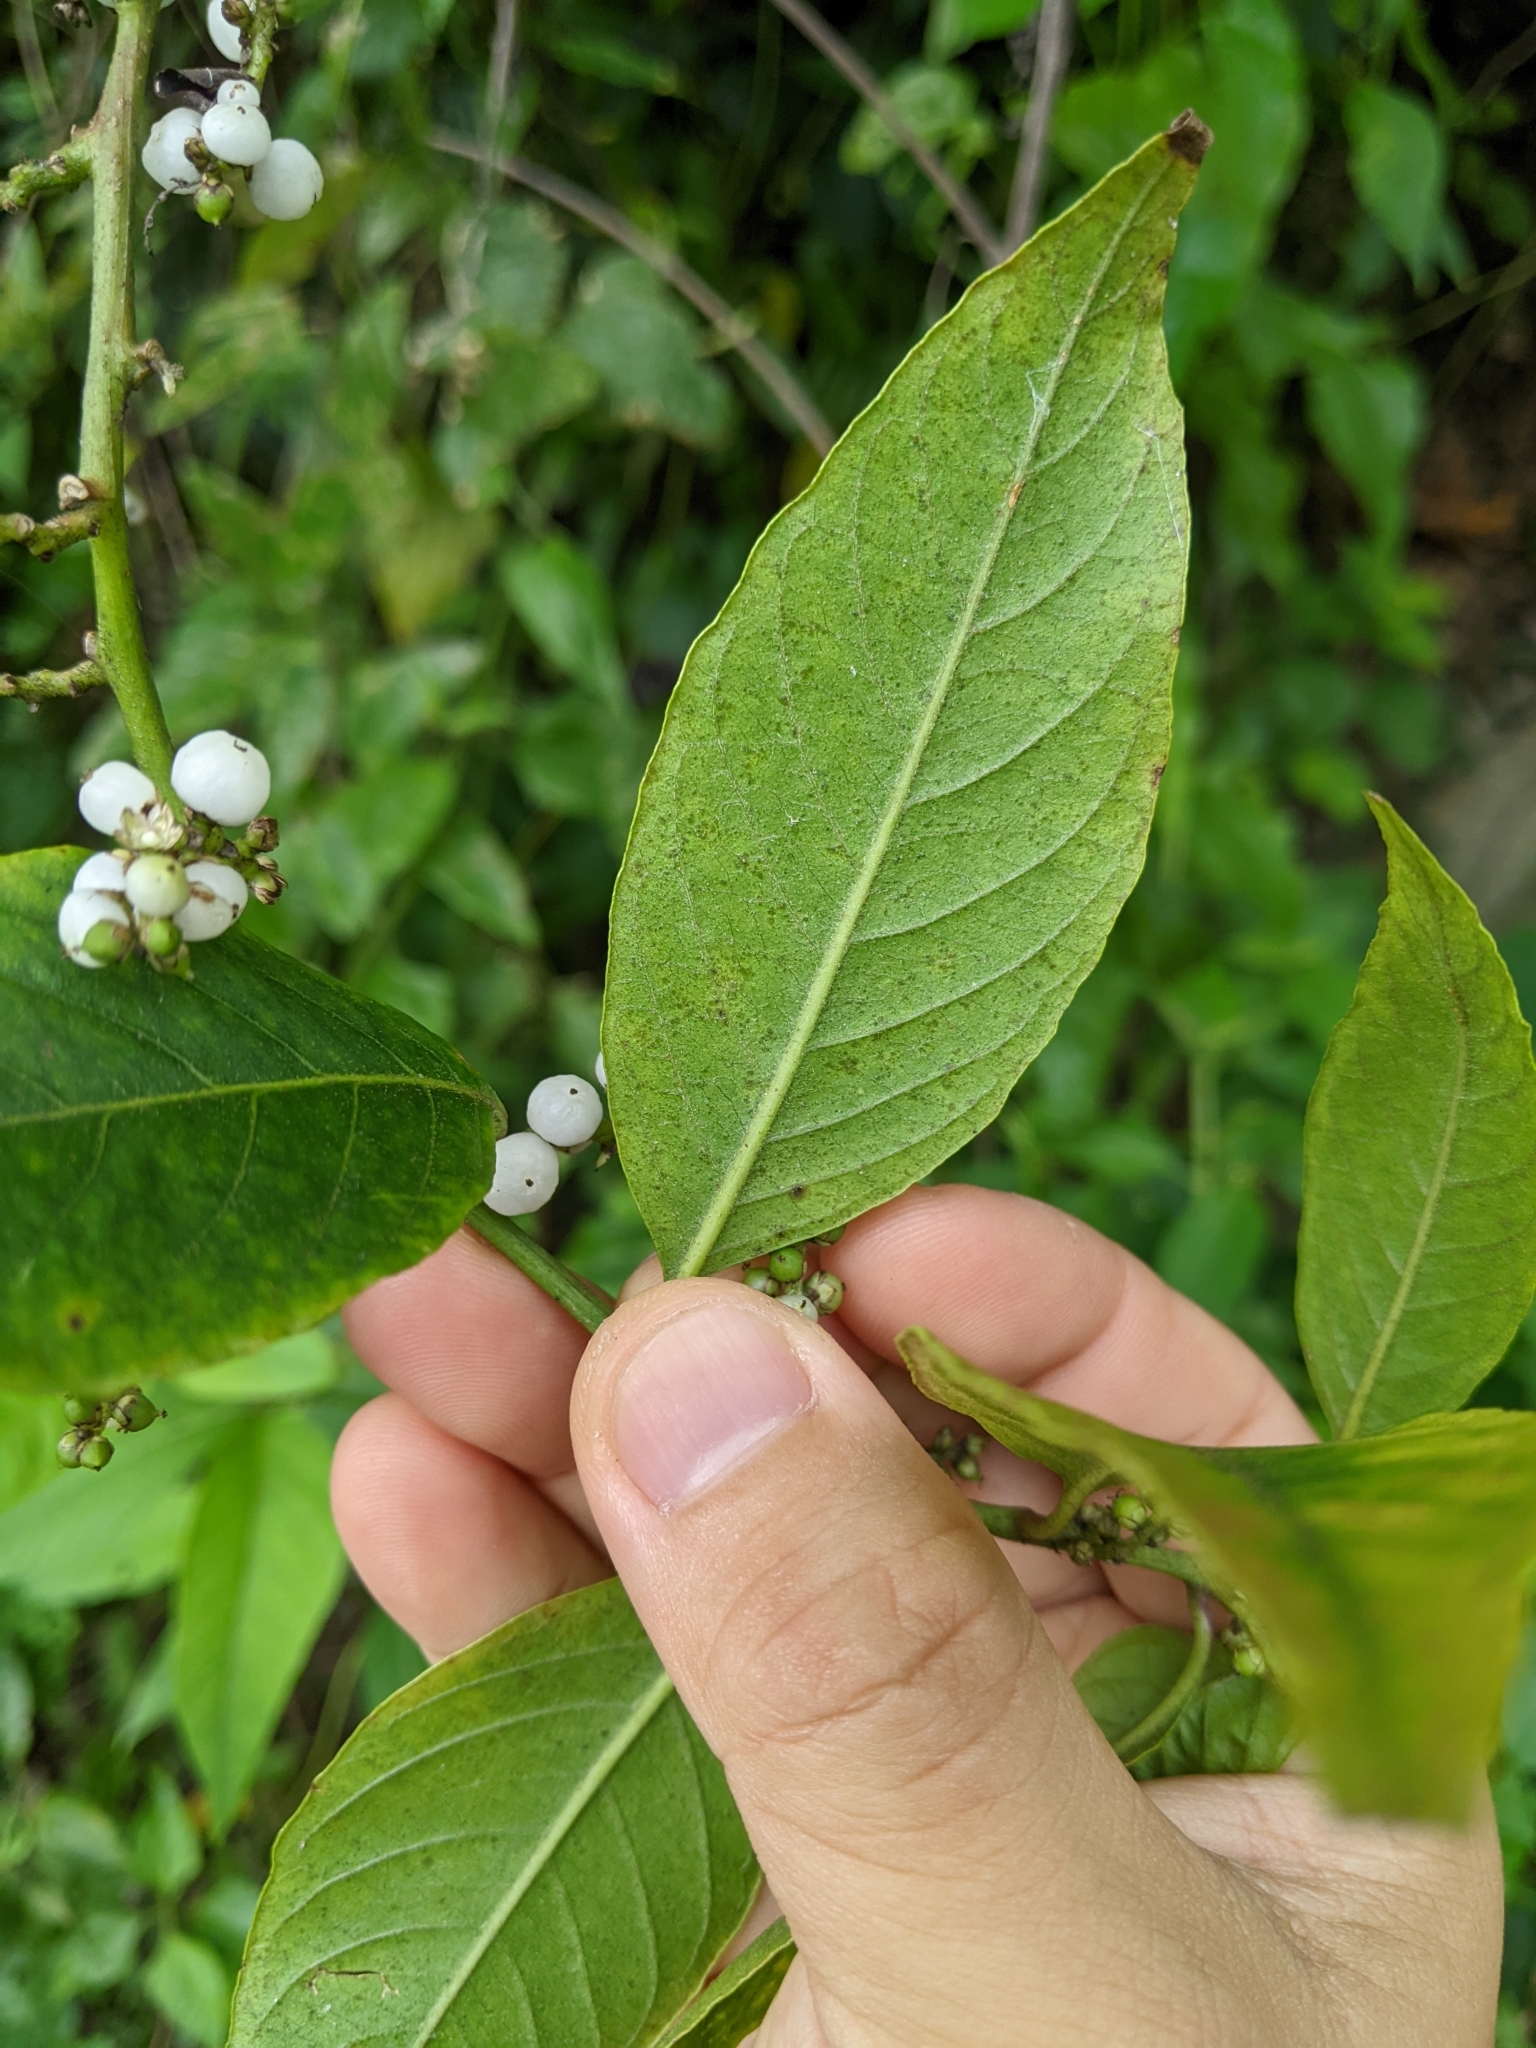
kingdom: Plantae
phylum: Tracheophyta
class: Magnoliopsida
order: Caryophyllales
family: Amaranthaceae
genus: Deeringia
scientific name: Deeringia polysperma
